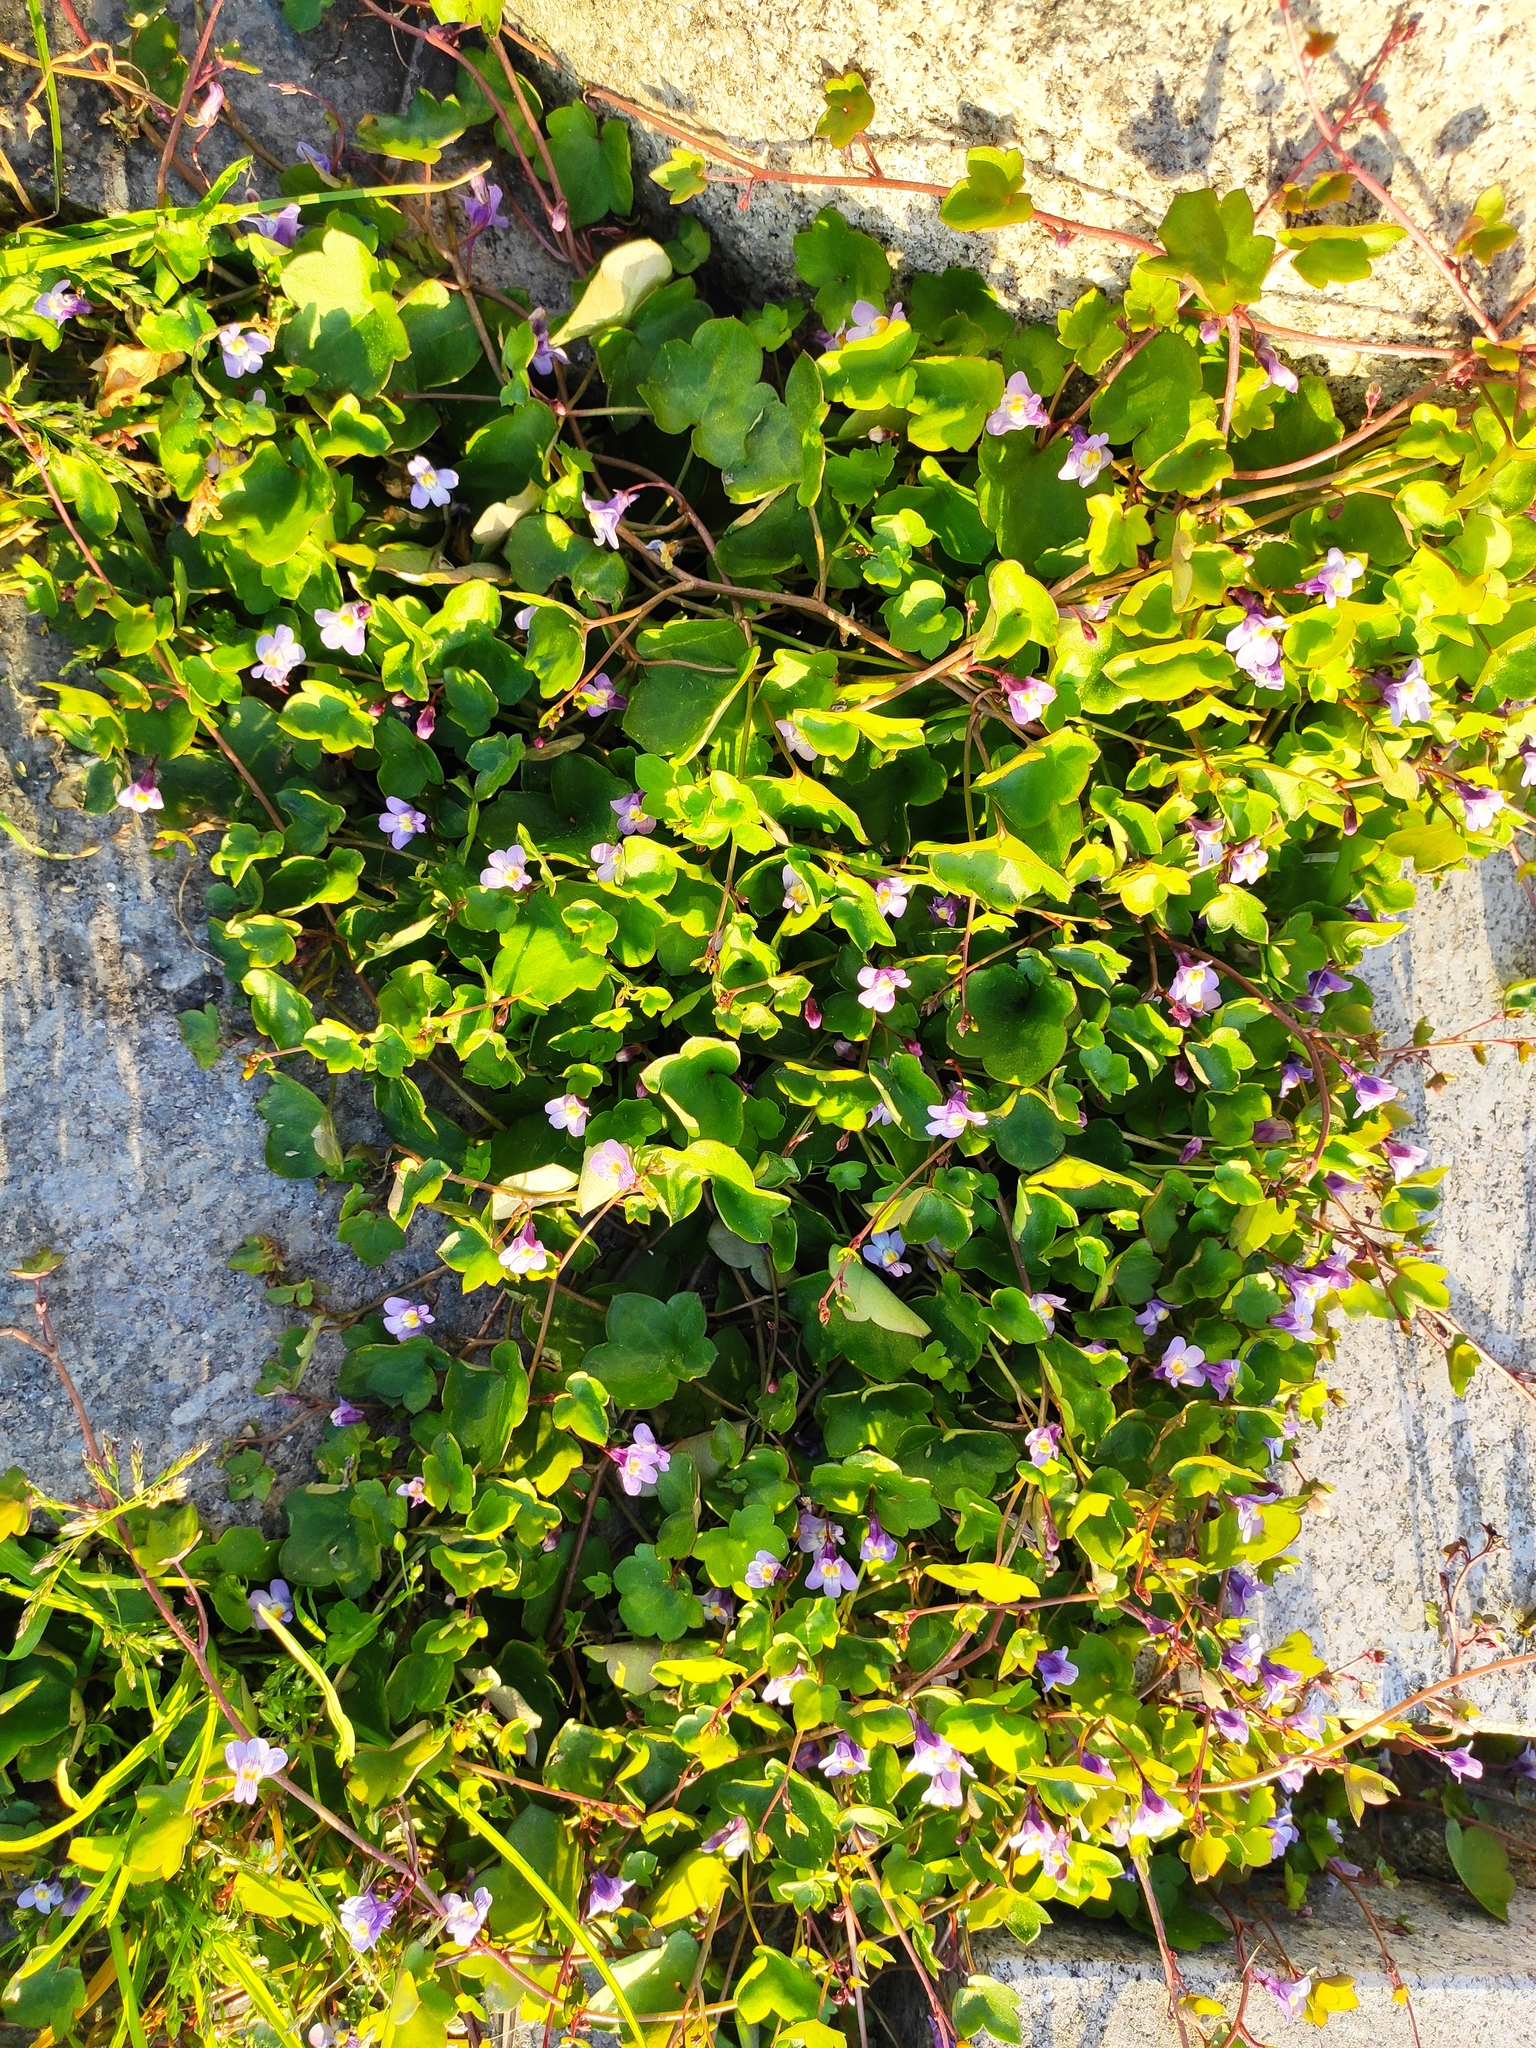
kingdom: Plantae
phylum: Tracheophyta
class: Magnoliopsida
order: Lamiales
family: Plantaginaceae
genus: Cymbalaria
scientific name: Cymbalaria muralis
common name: Ivy-leaved toadflax
